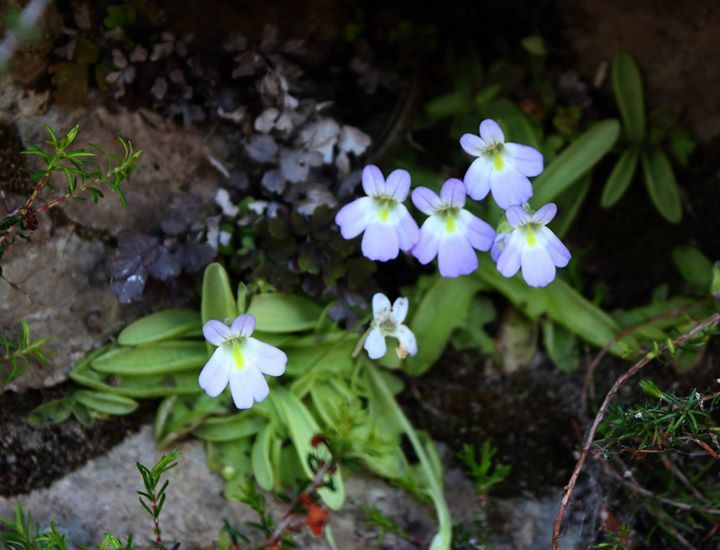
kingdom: Plantae
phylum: Tracheophyta
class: Magnoliopsida
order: Lamiales
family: Lentibulariaceae
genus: Pinguicula
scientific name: Pinguicula crystallina
